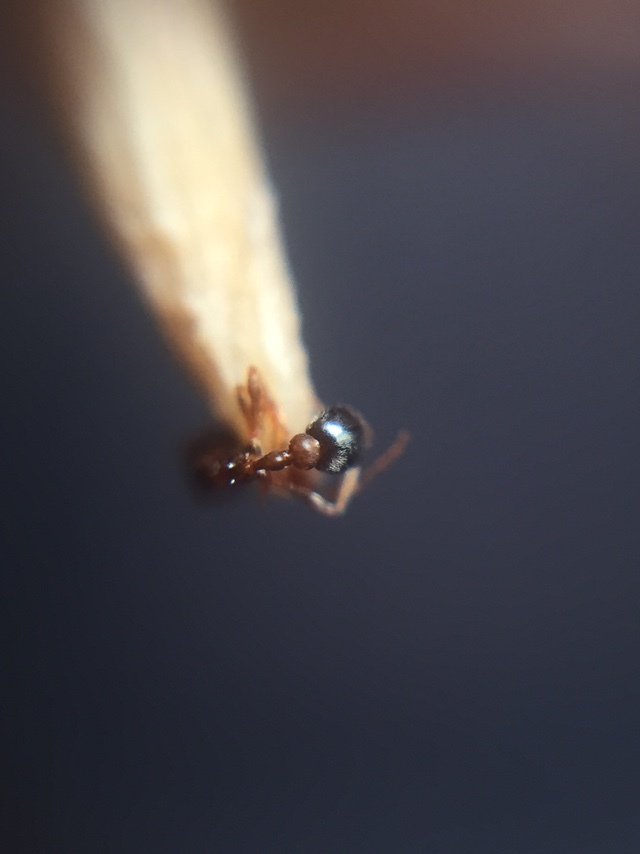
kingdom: Animalia
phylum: Arthropoda
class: Insecta
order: Hymenoptera
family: Formicidae
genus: Cardiocondyla
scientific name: Cardiocondyla mauritanica
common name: Sneaking ant
